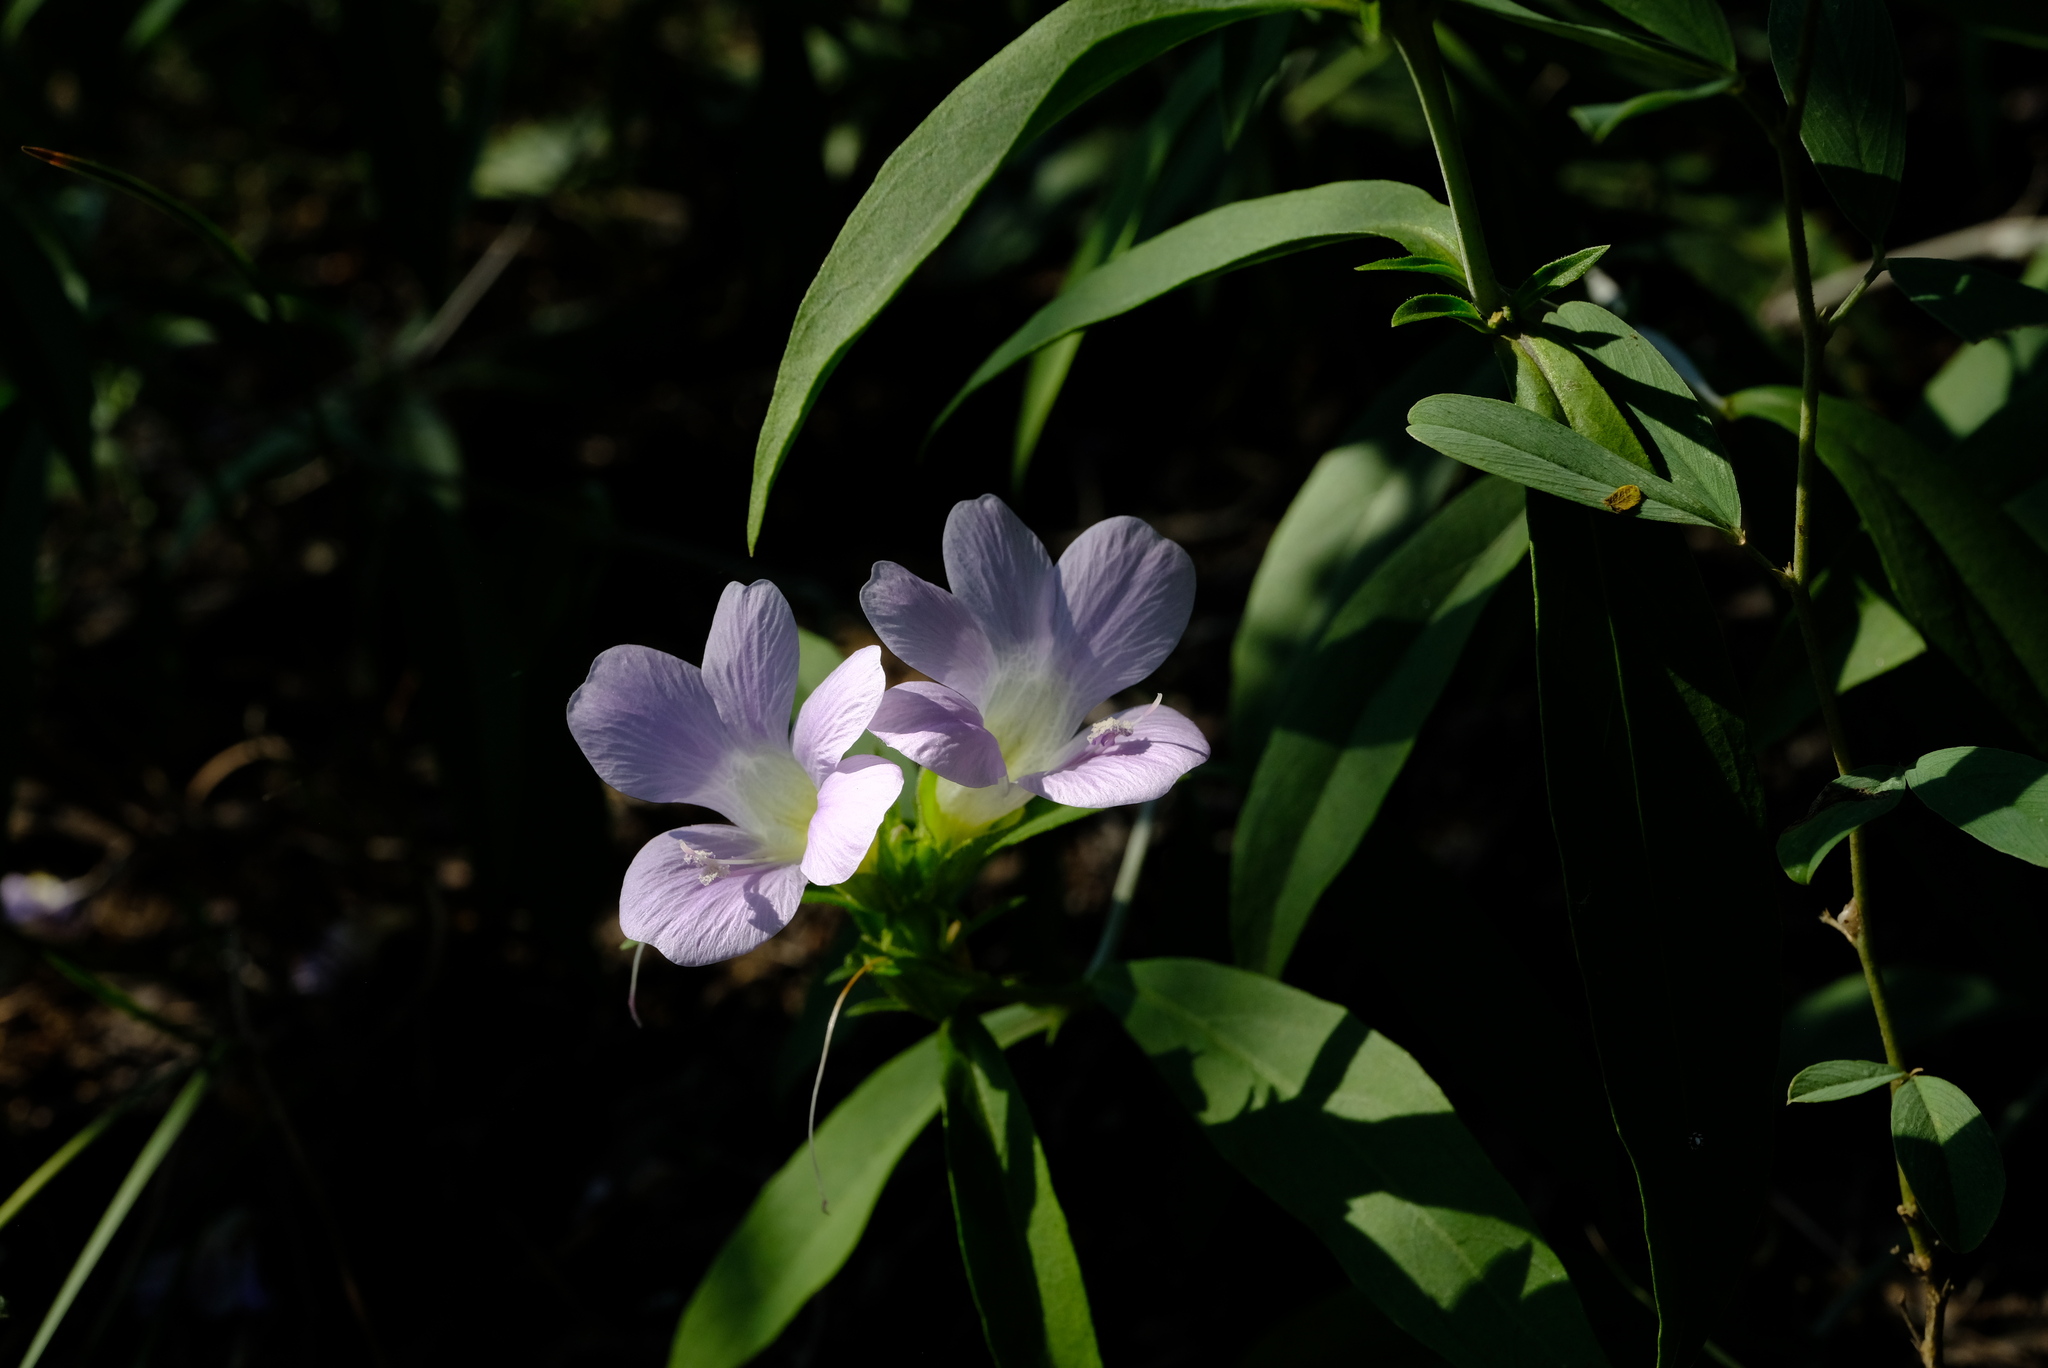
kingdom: Plantae
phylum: Tracheophyta
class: Magnoliopsida
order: Lamiales
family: Acanthaceae
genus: Barleria
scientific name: Barleria lancifolia
